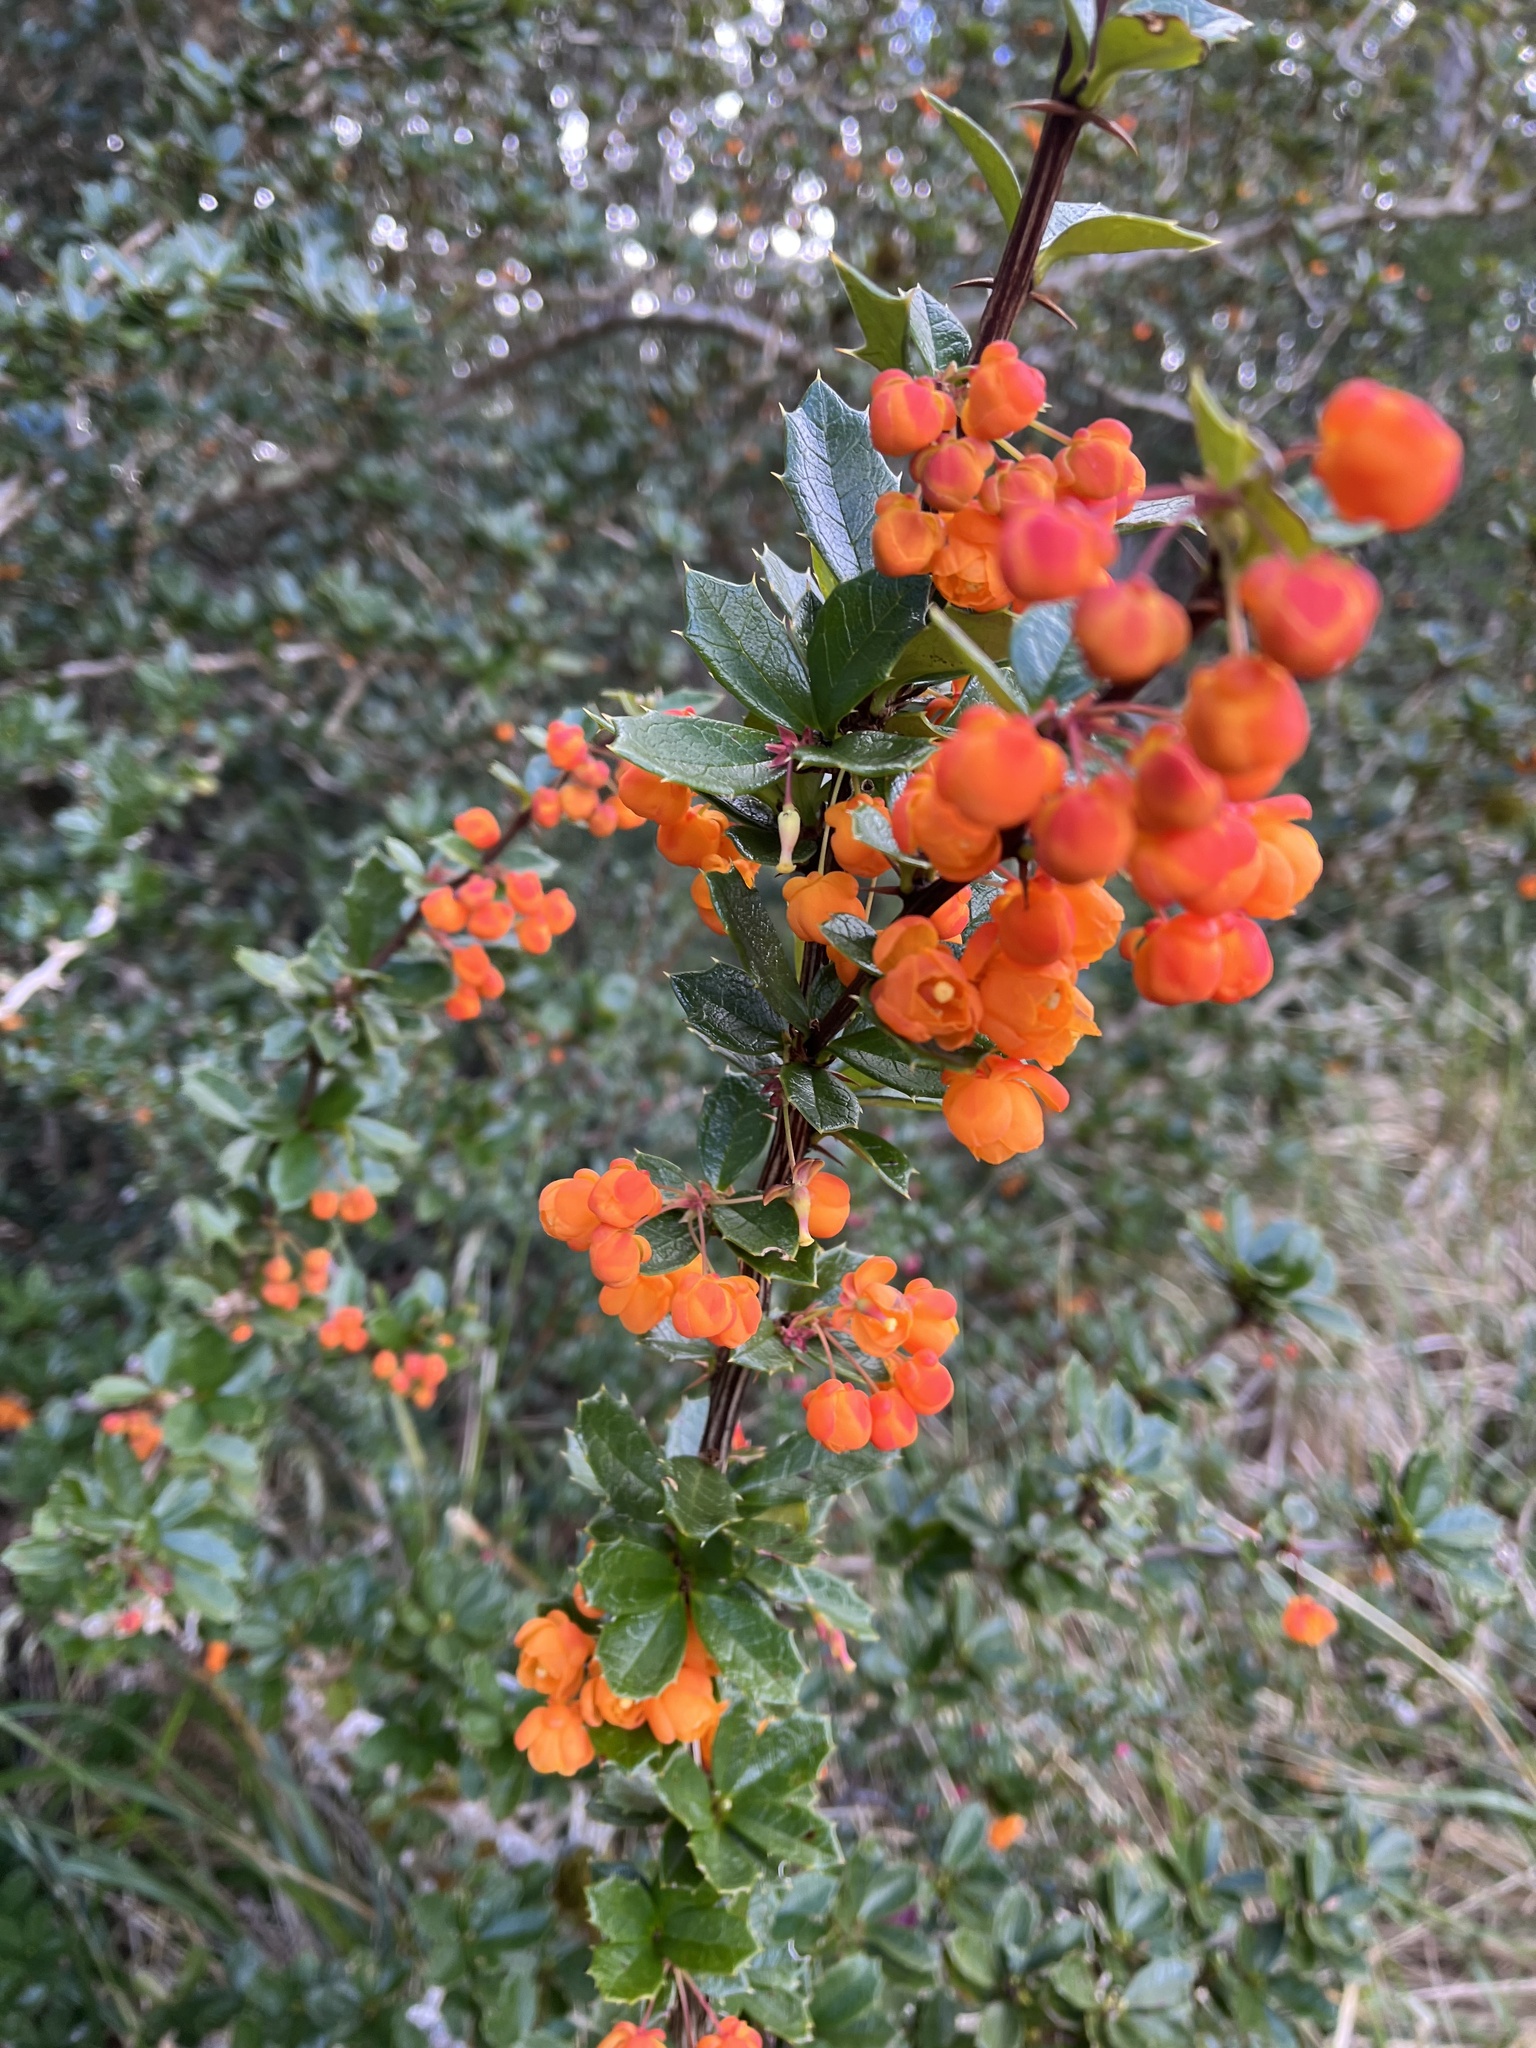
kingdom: Plantae
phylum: Tracheophyta
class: Magnoliopsida
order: Ranunculales
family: Berberidaceae
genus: Berberis
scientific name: Berberis ilicifolia
